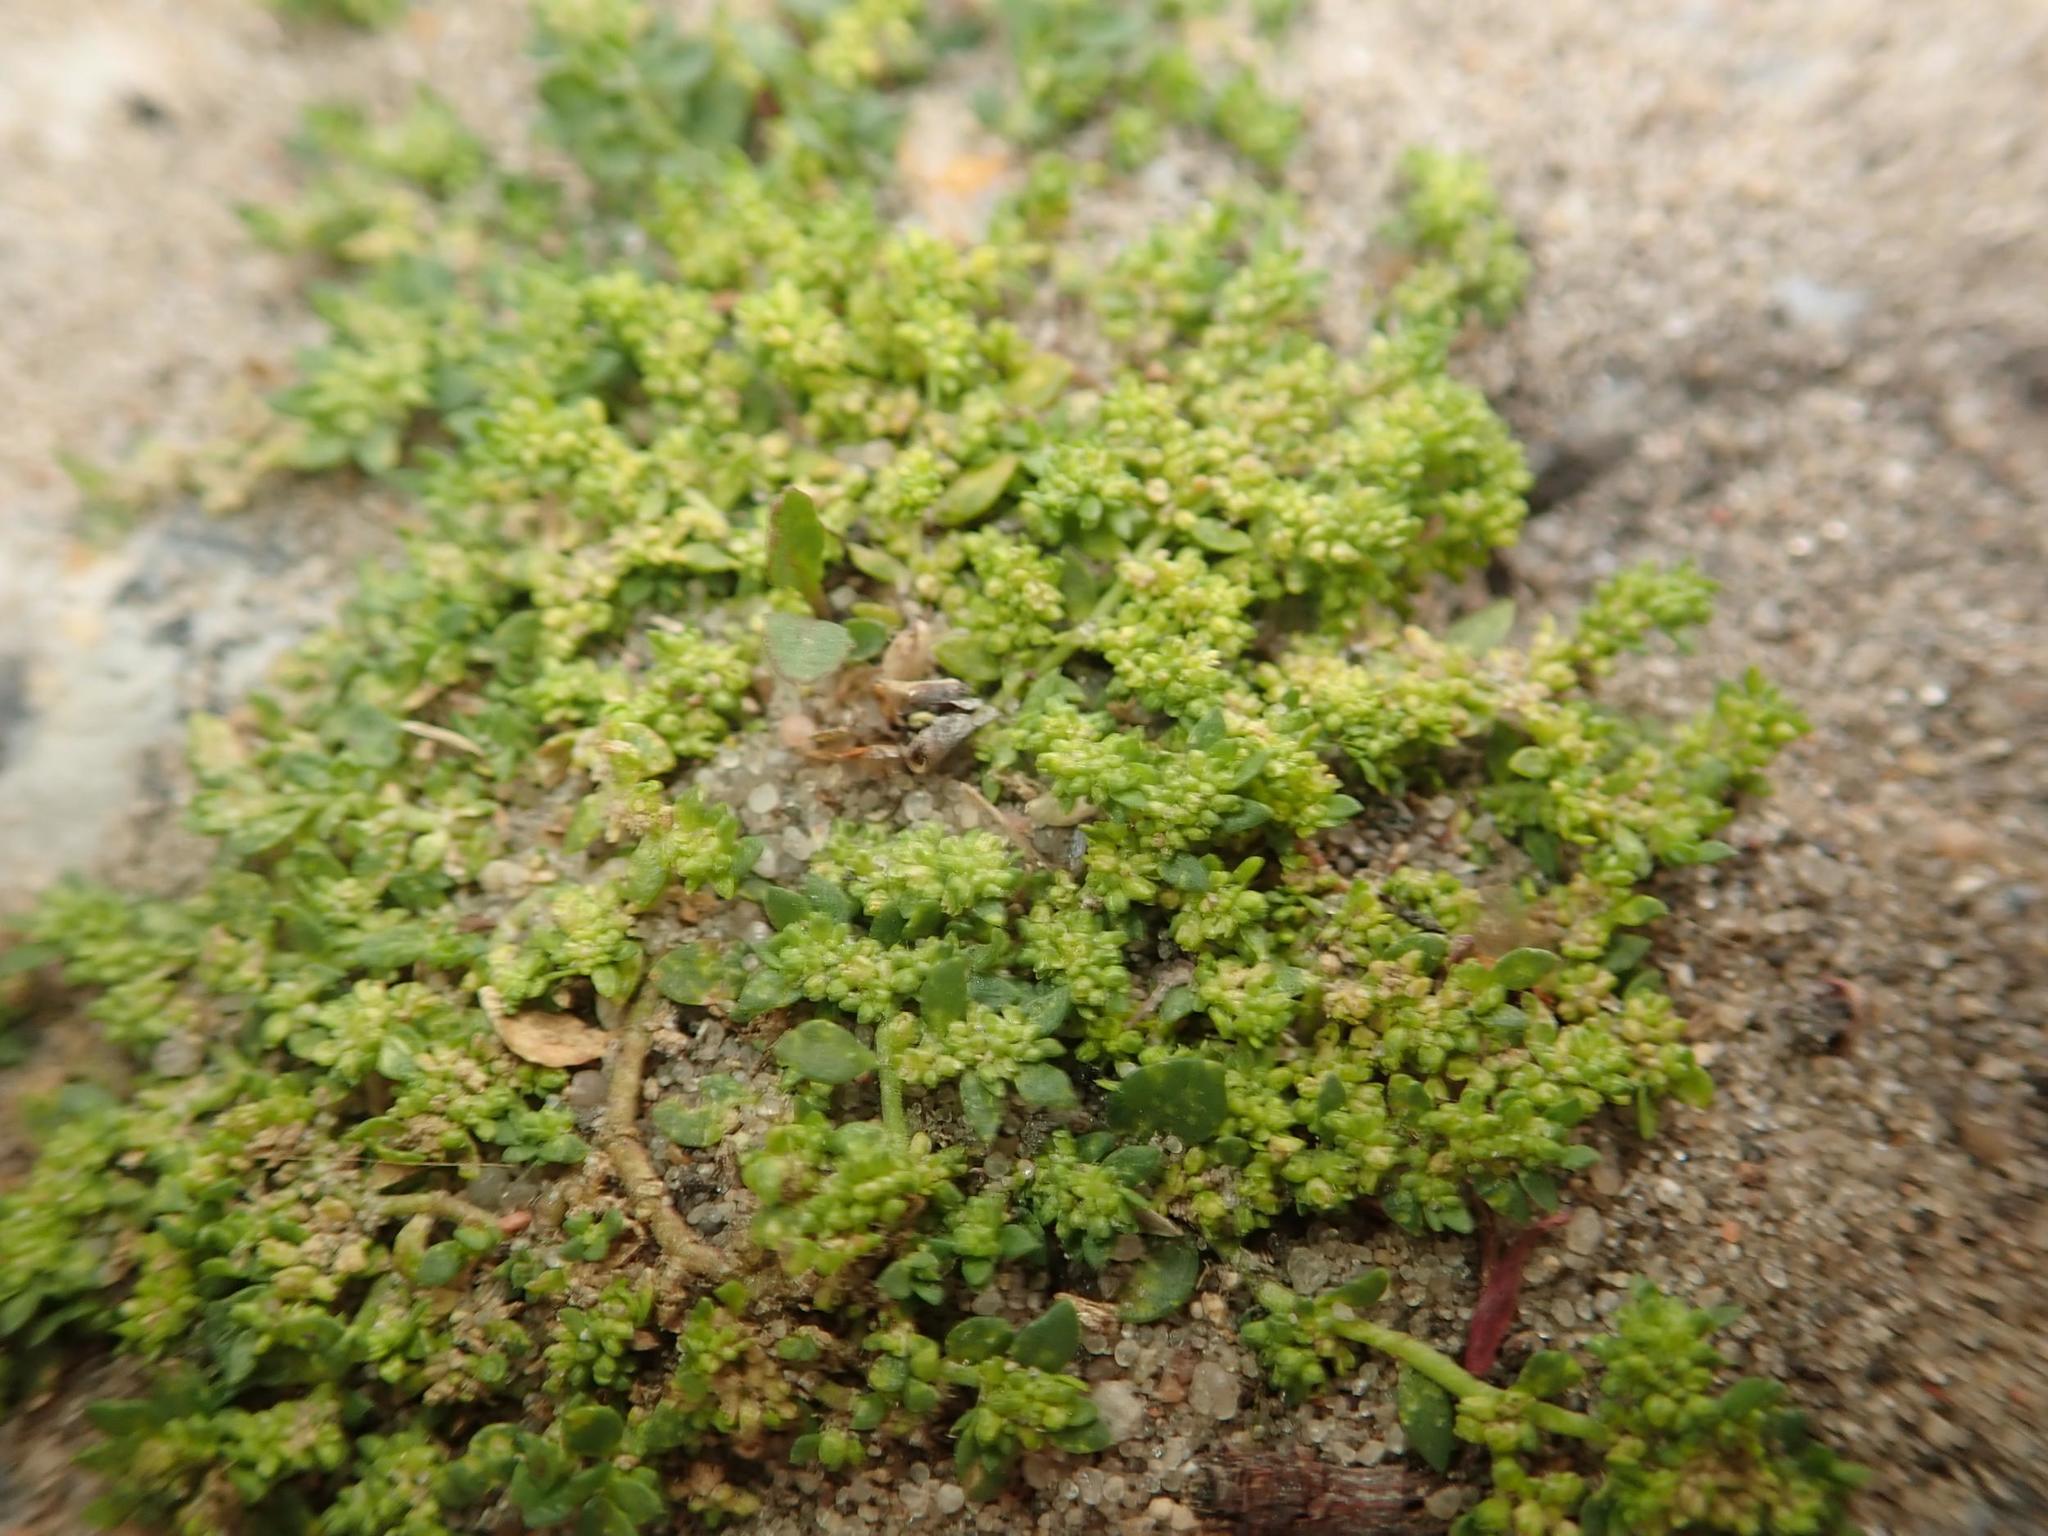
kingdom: Plantae
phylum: Tracheophyta
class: Magnoliopsida
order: Caryophyllales
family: Caryophyllaceae
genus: Herniaria
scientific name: Herniaria glabra
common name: Smooth rupturewort
